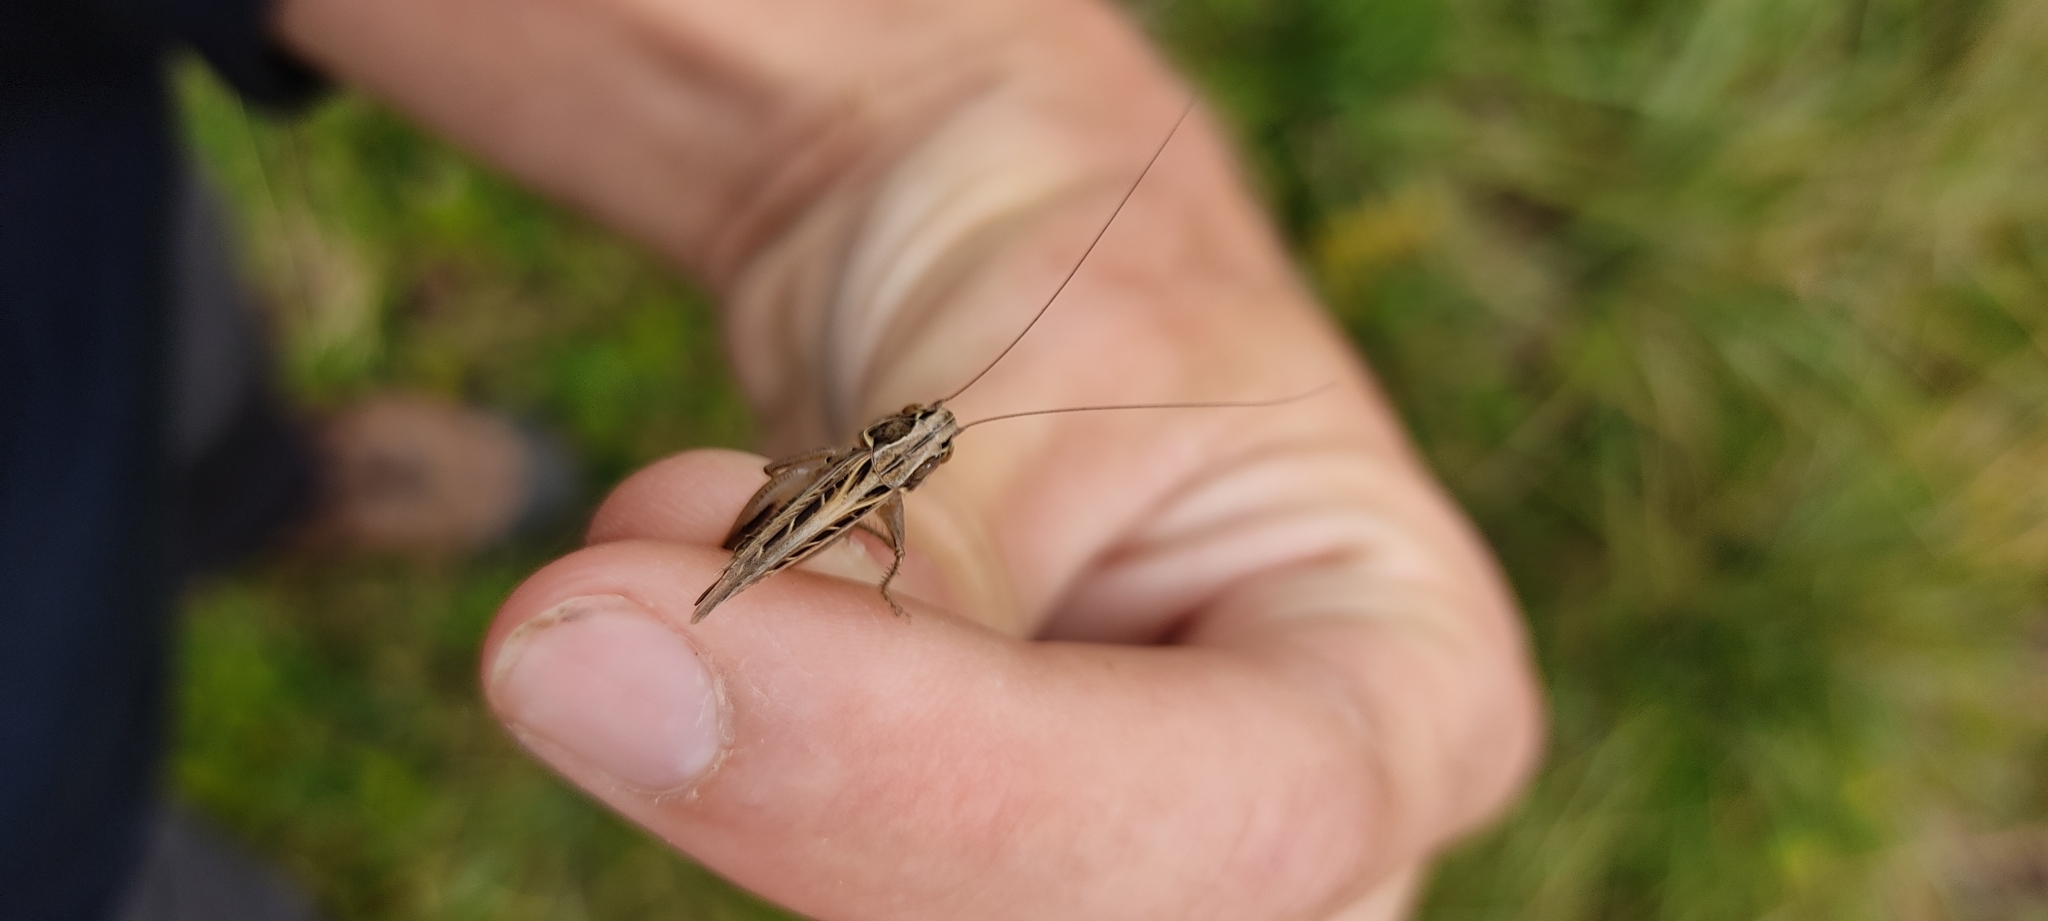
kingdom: Animalia
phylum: Arthropoda
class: Insecta
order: Orthoptera
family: Tettigoniidae
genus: Tessellana
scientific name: Tessellana tessellata
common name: Grasshopper
